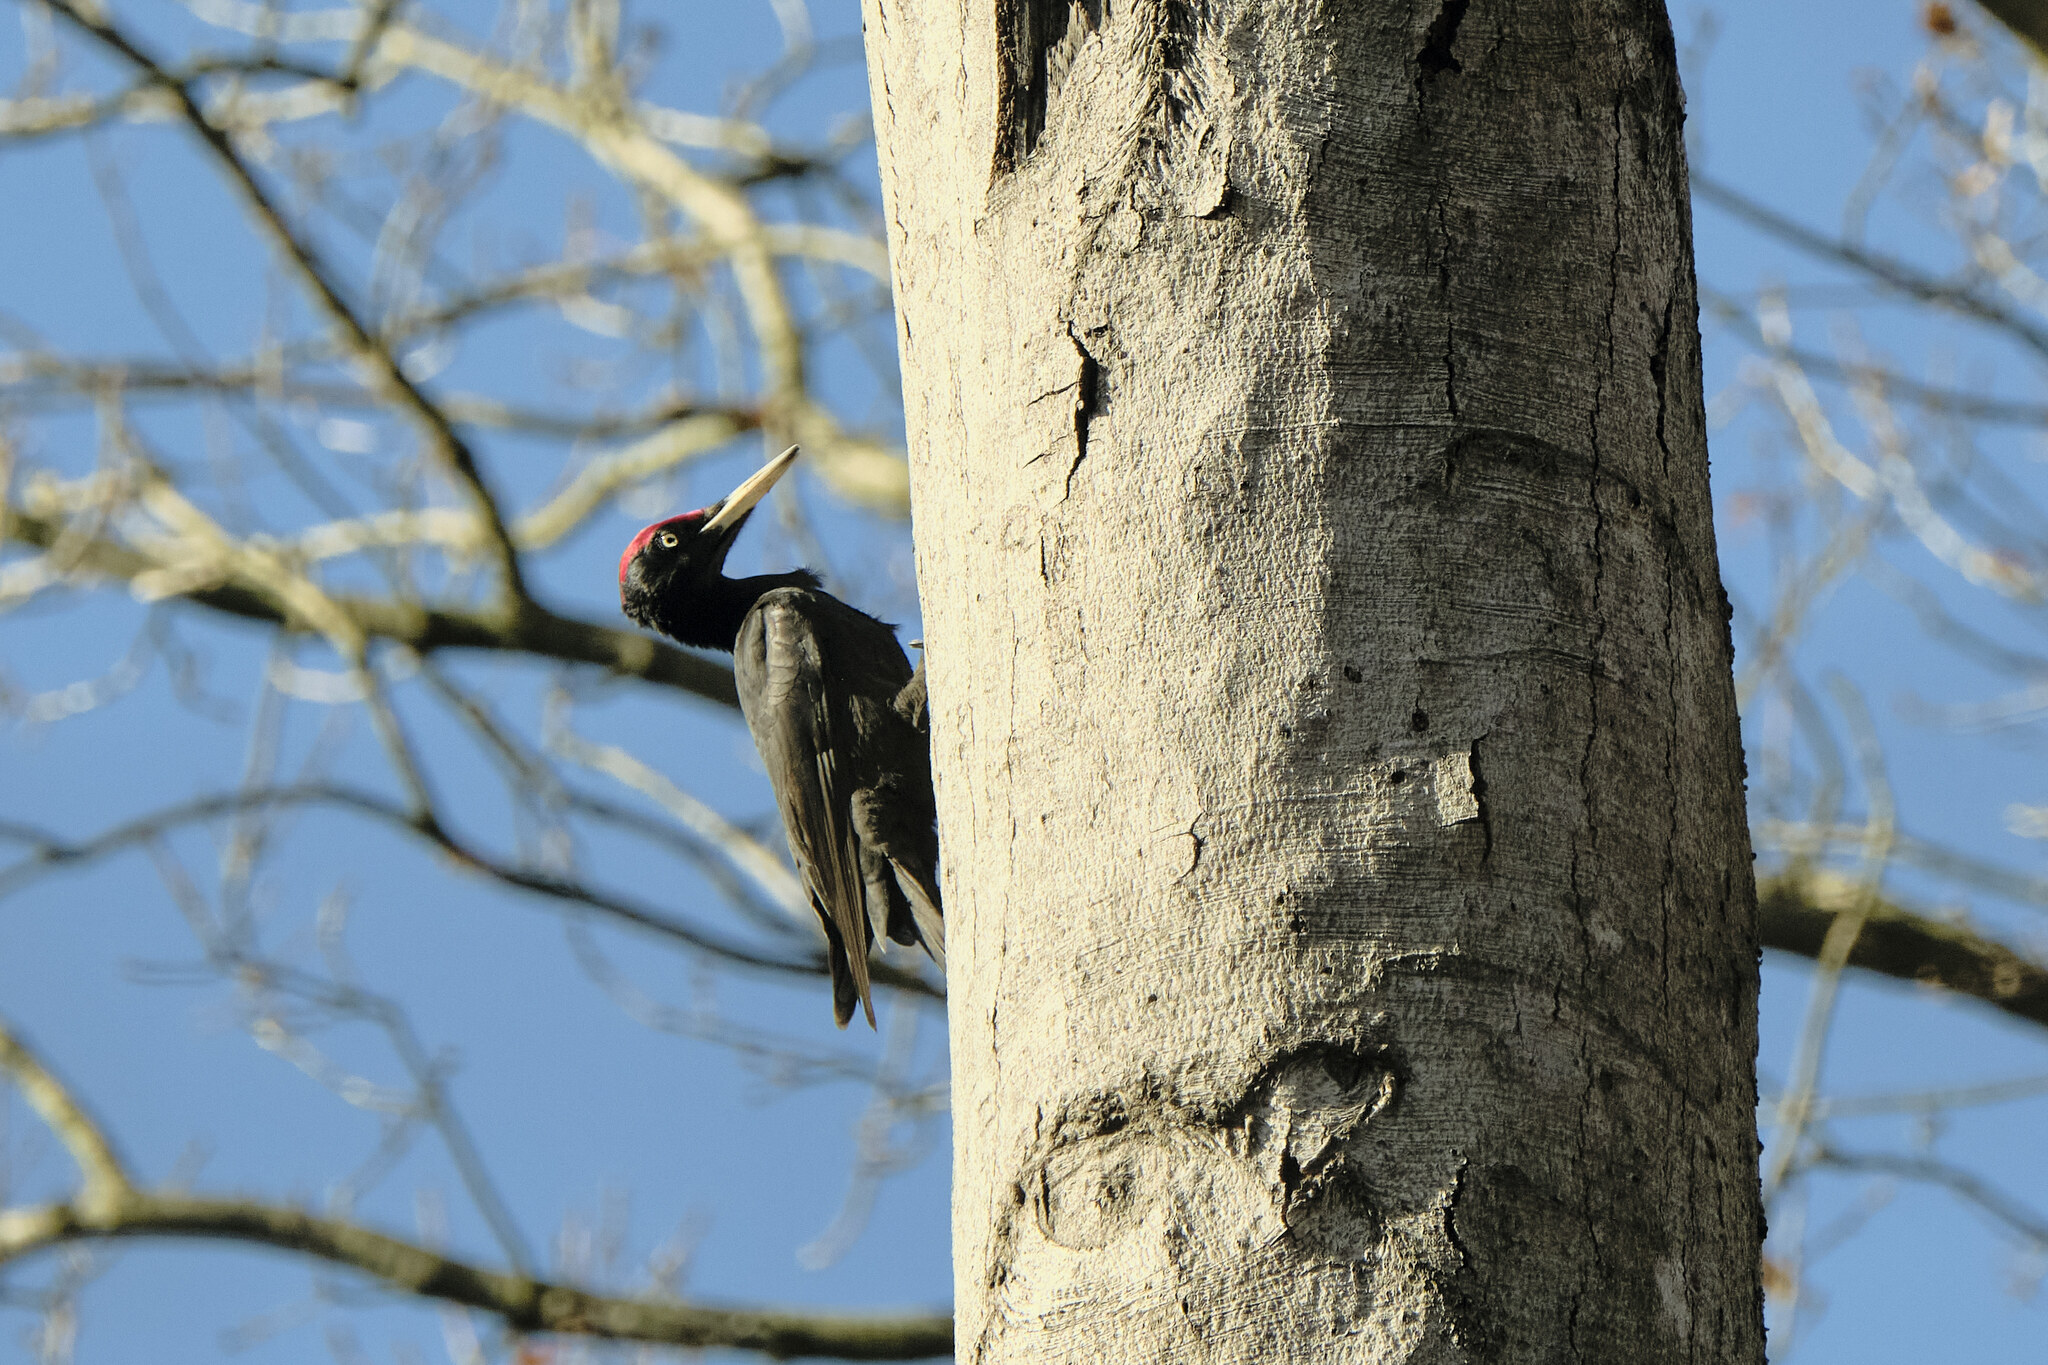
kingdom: Animalia
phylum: Chordata
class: Aves
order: Piciformes
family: Picidae
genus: Dryocopus
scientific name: Dryocopus martius
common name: Black woodpecker
